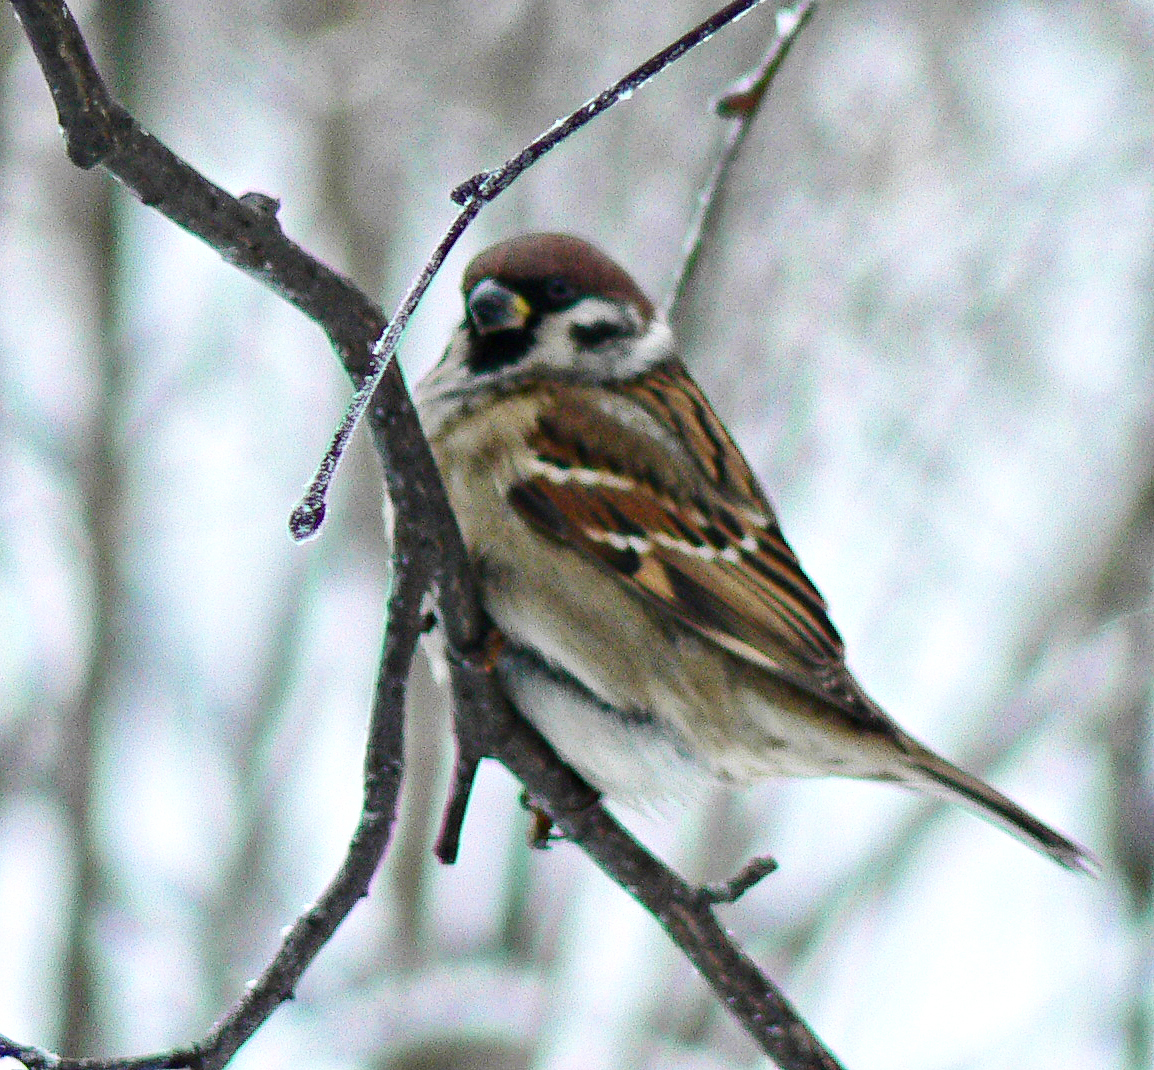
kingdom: Animalia
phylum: Chordata
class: Aves
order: Passeriformes
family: Passeridae
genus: Passer
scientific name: Passer montanus
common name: Eurasian tree sparrow
